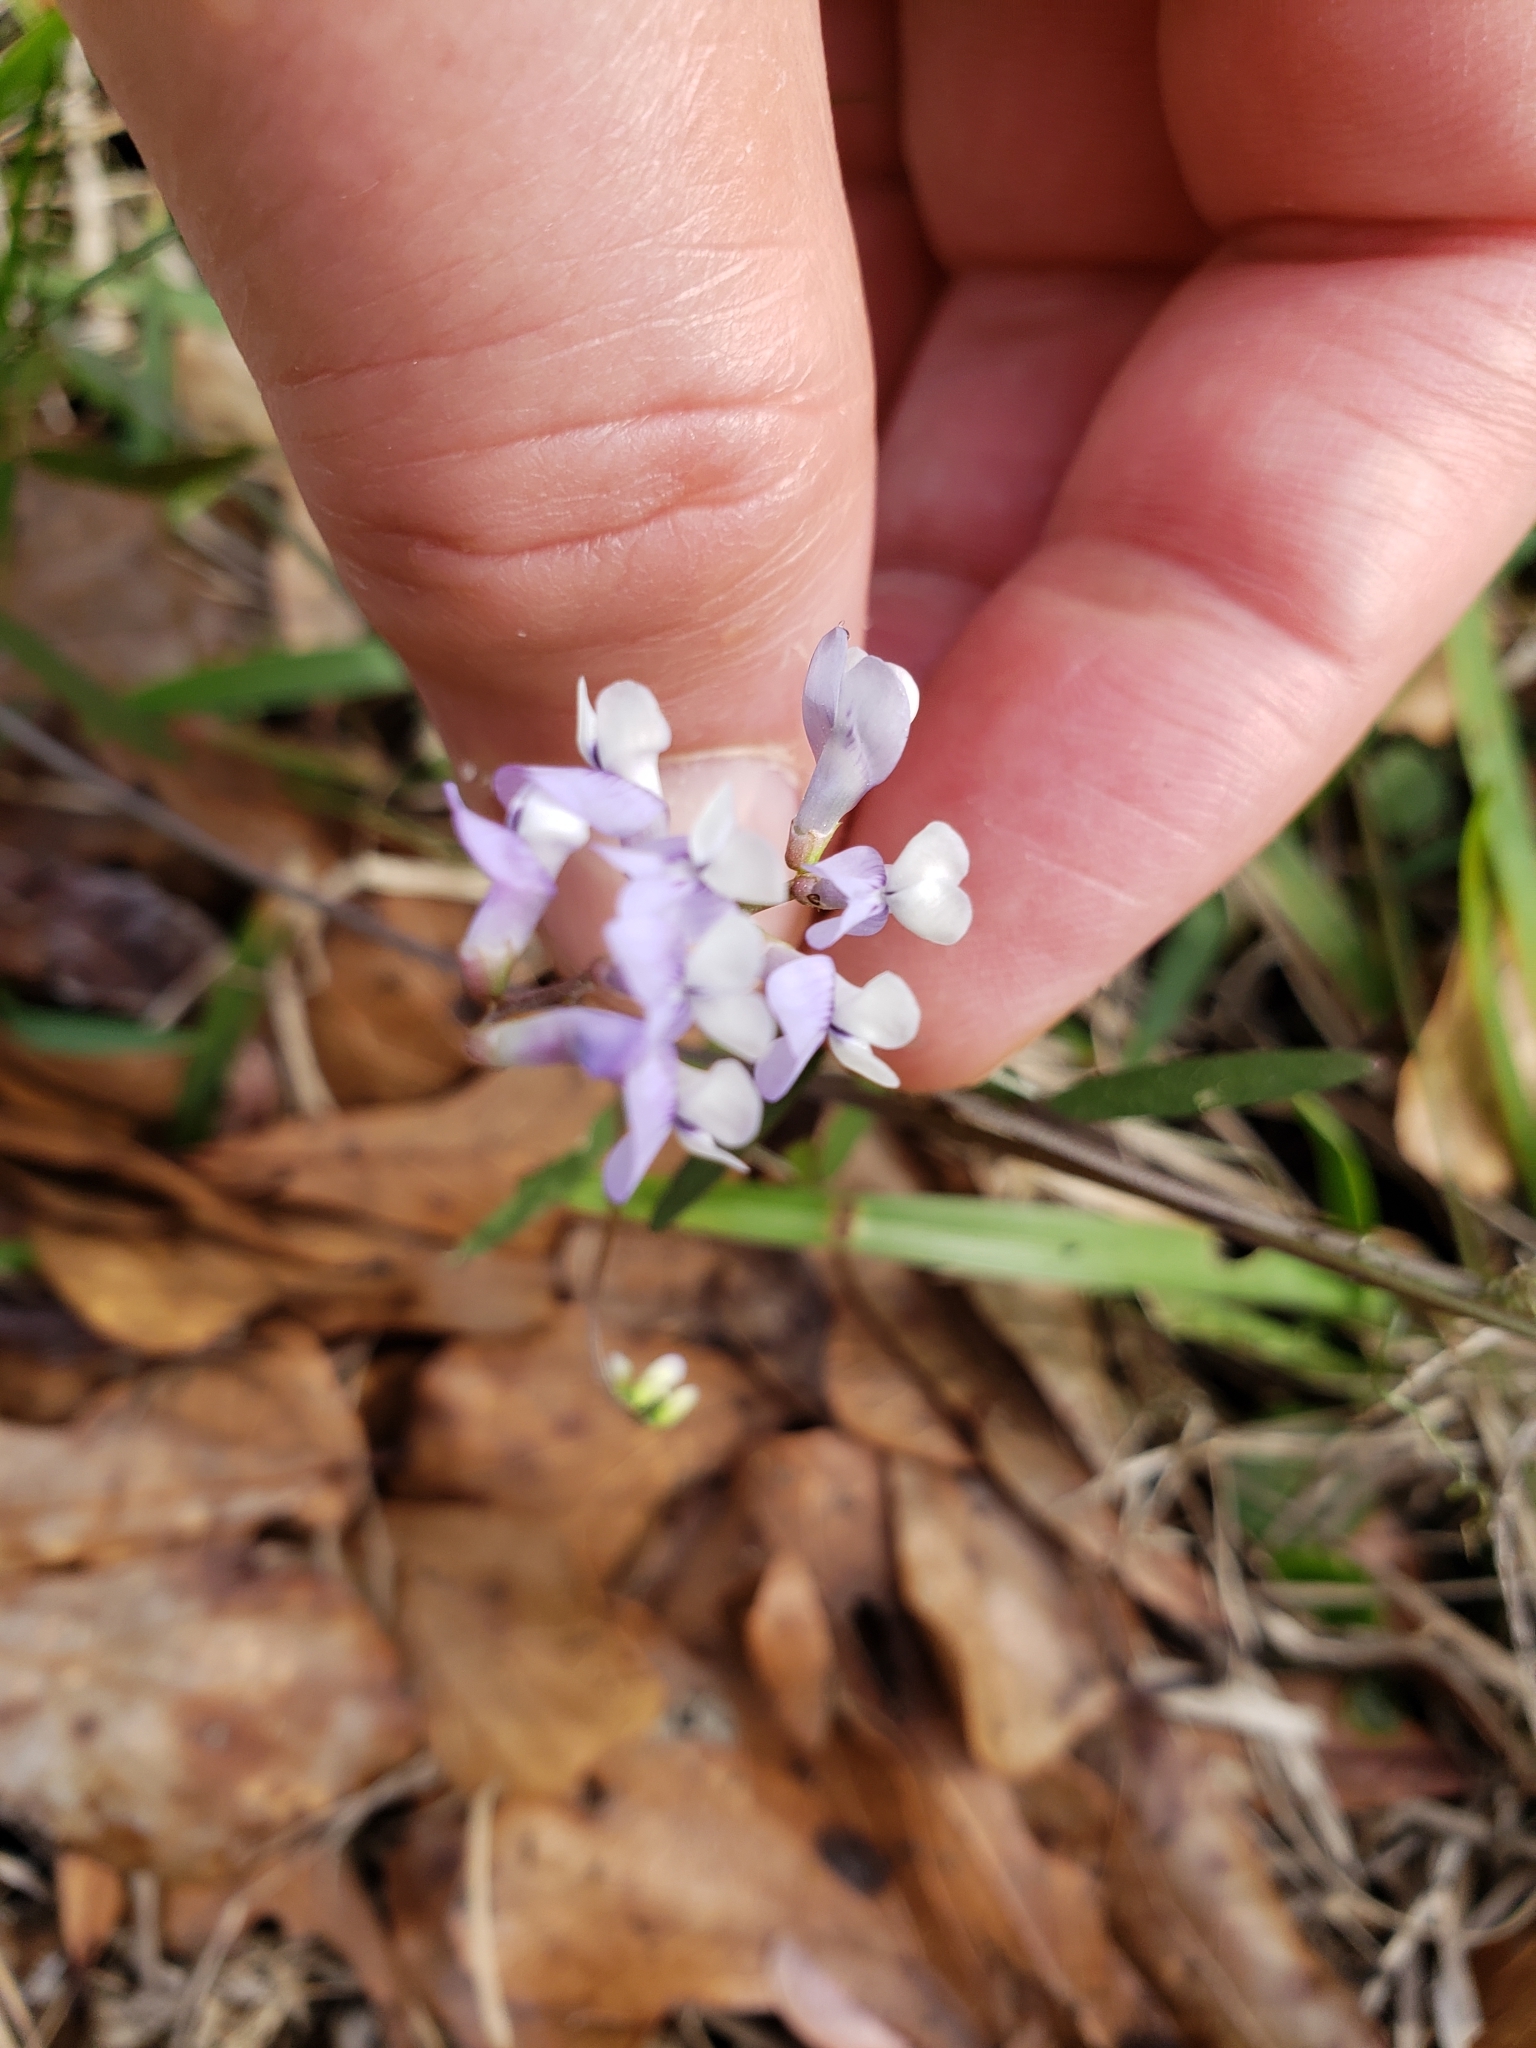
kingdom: Plantae
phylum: Tracheophyta
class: Magnoliopsida
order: Fabales
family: Fabaceae
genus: Vicia
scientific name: Vicia acutifolia
